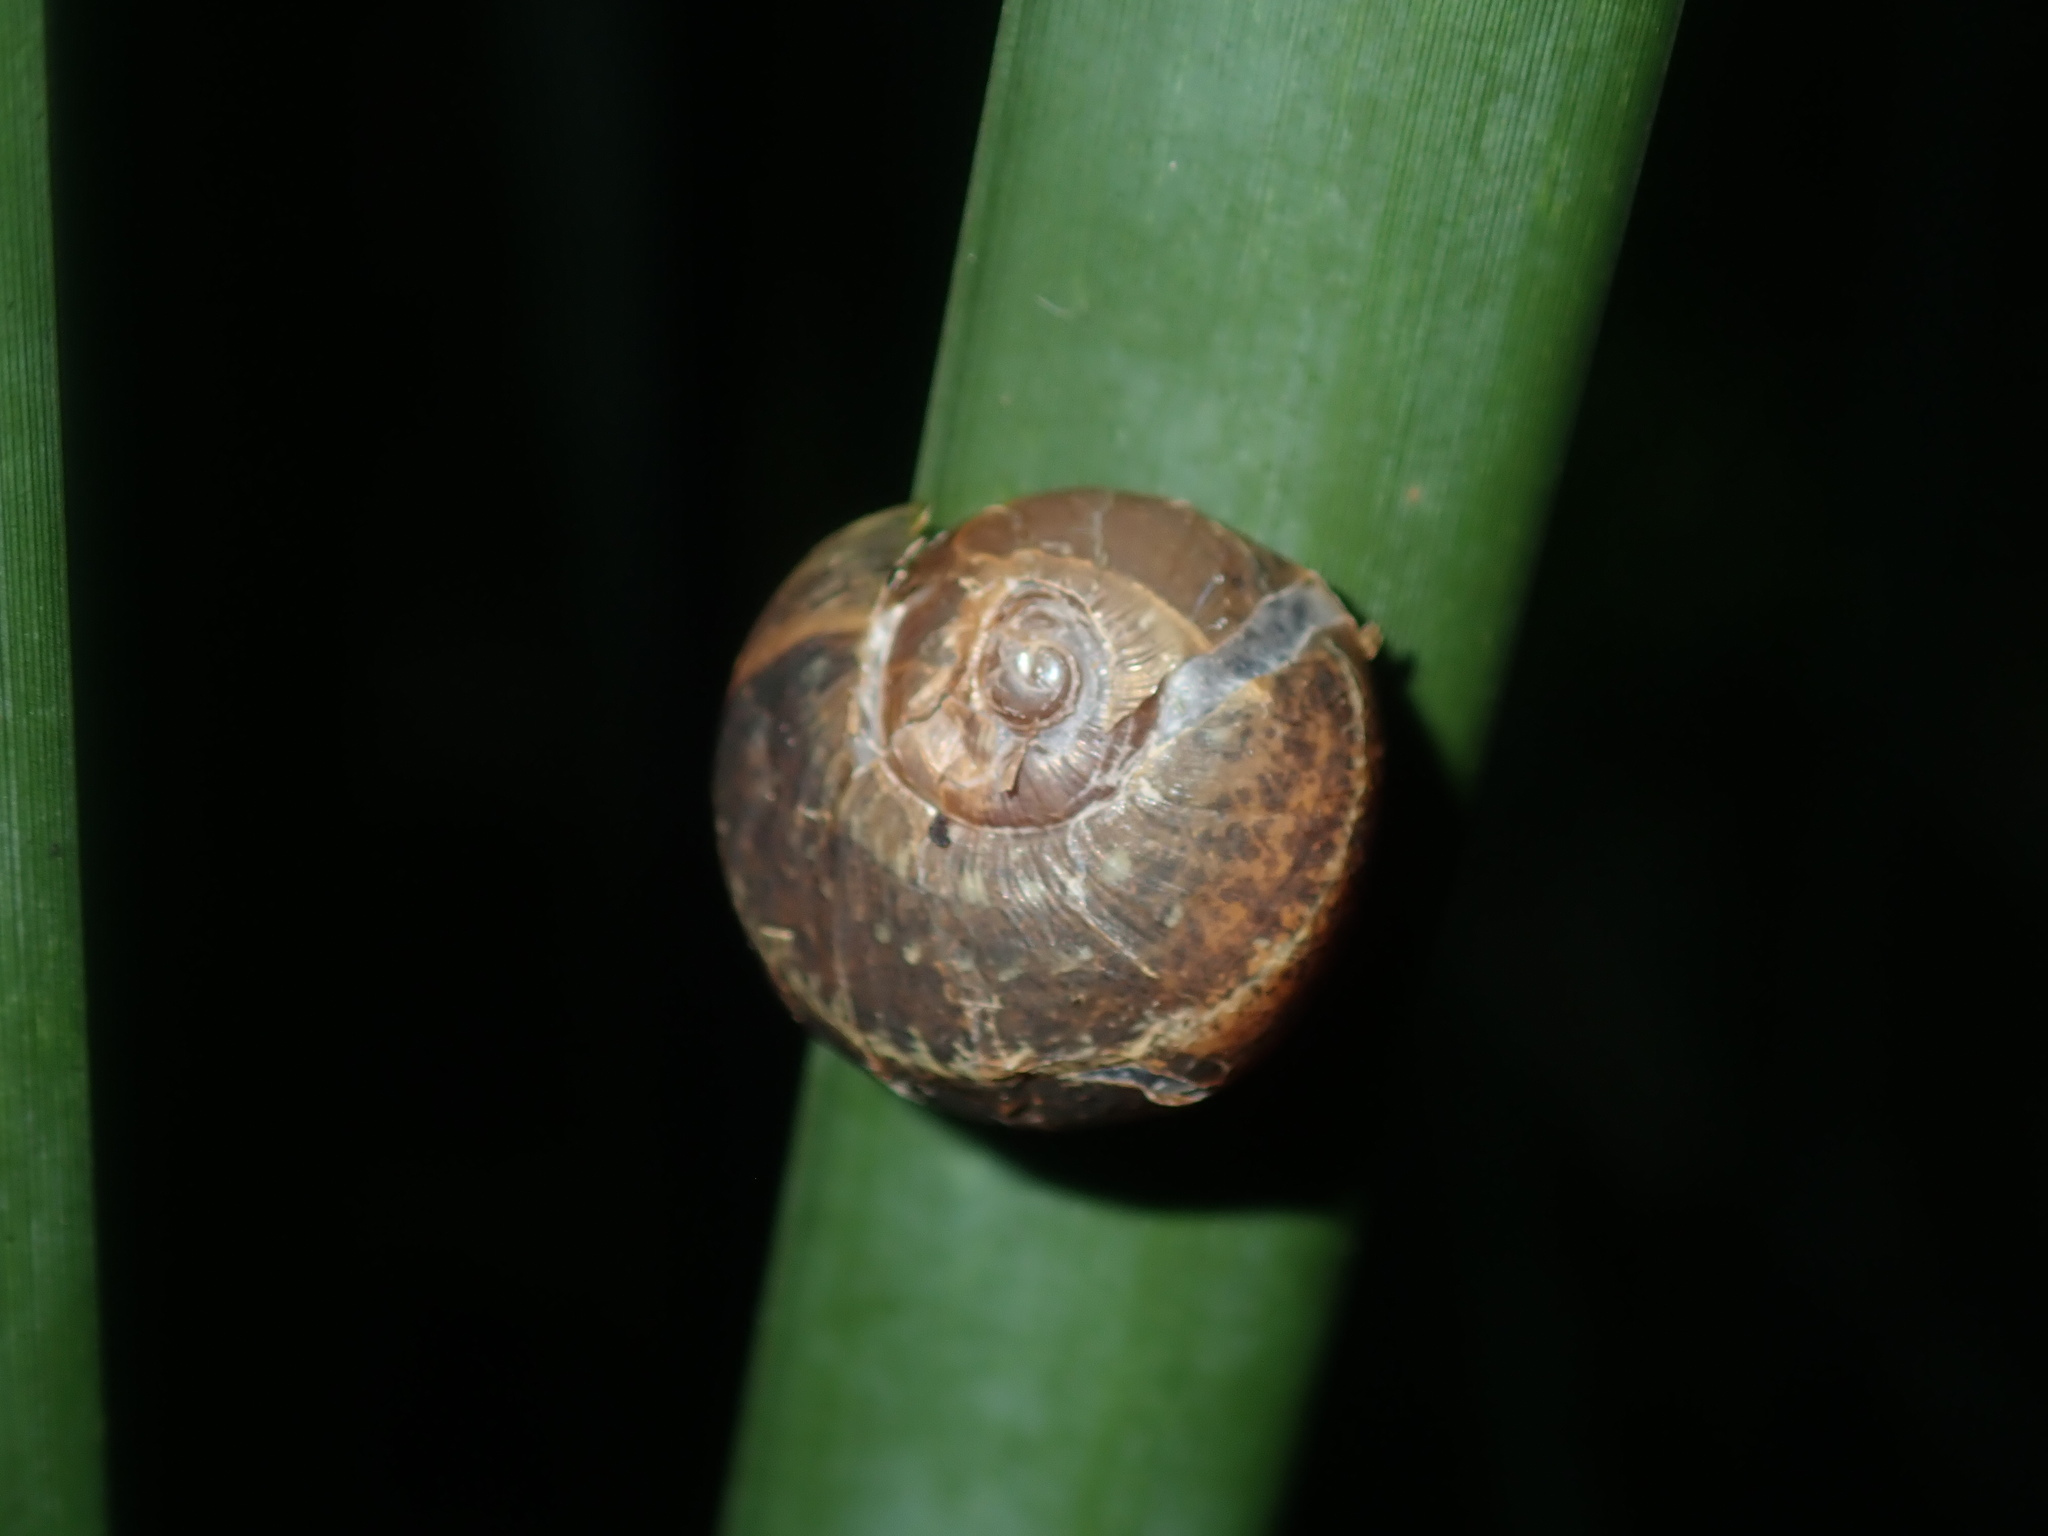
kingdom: Animalia
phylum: Mollusca
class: Gastropoda
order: Stylommatophora
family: Helicidae
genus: Cornu
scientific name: Cornu aspersum
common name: Brown garden snail
